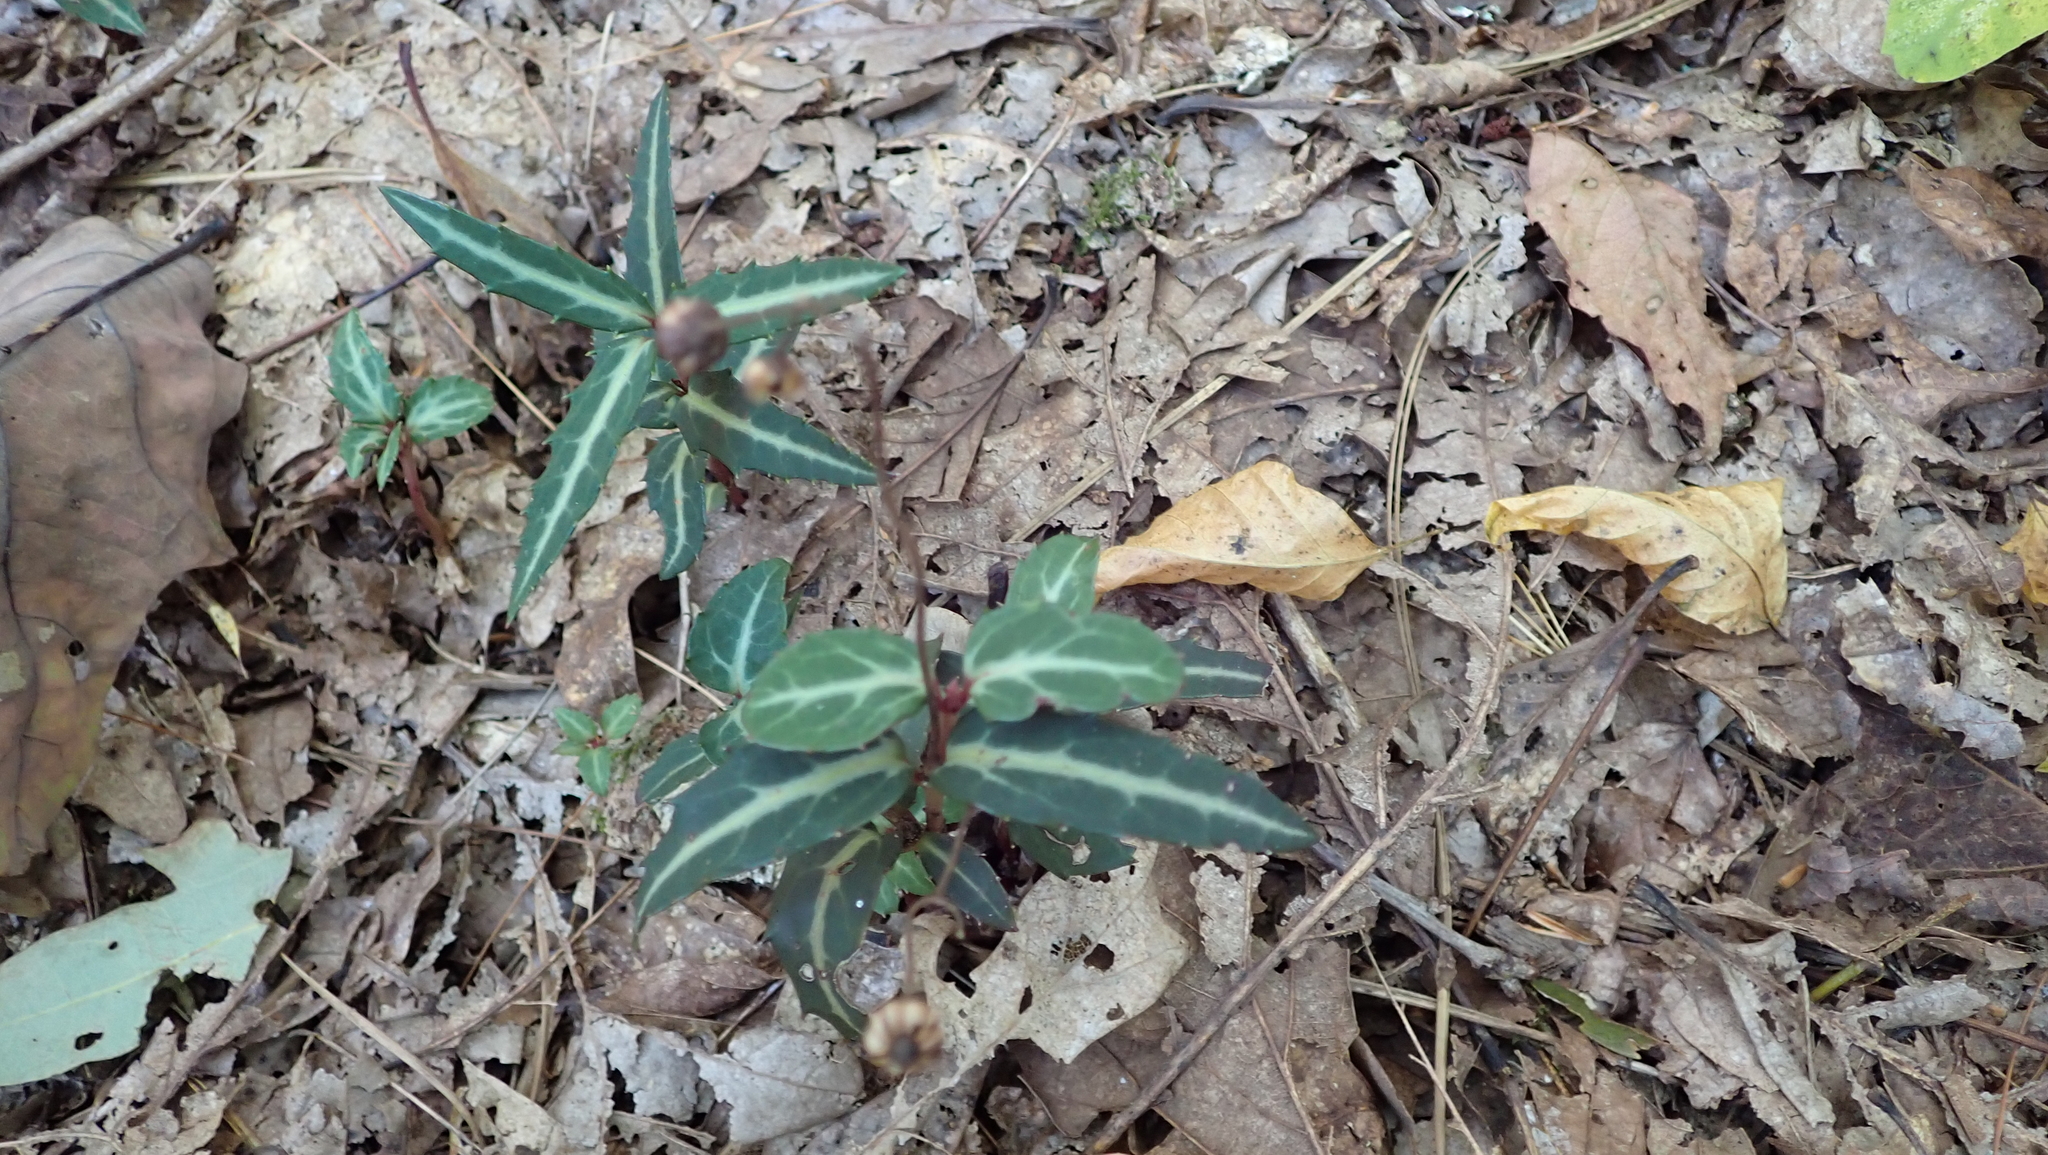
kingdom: Plantae
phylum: Tracheophyta
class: Magnoliopsida
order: Ericales
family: Ericaceae
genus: Chimaphila
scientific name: Chimaphila maculata
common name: Spotted pipsissewa
